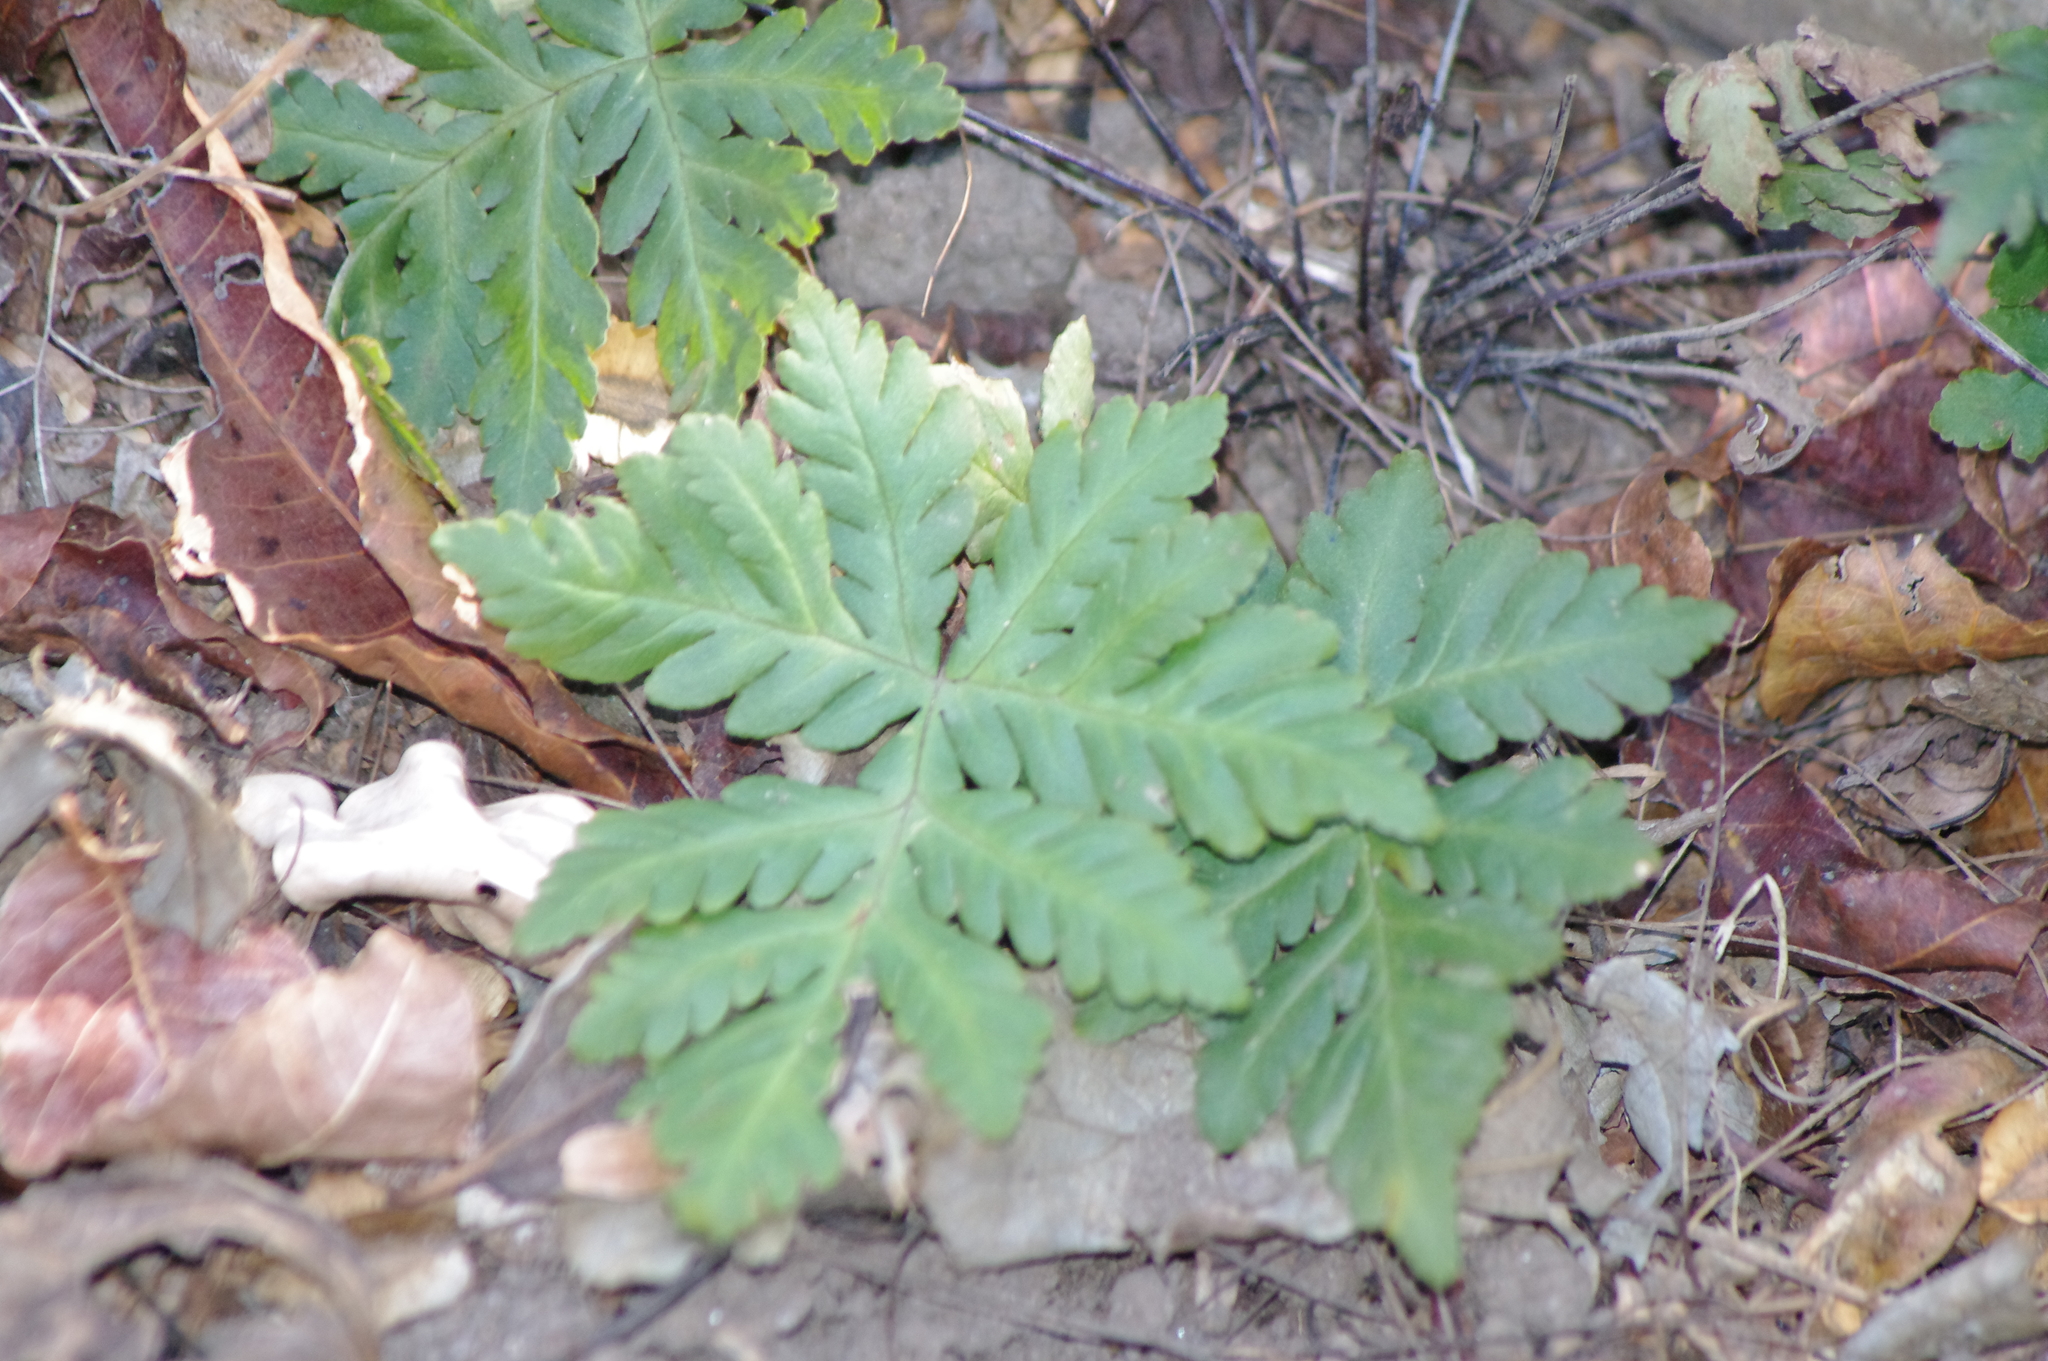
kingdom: Plantae
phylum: Tracheophyta
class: Polypodiopsida
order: Polypodiales
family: Pteridaceae
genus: Doryopteris
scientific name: Doryopteris concolor
